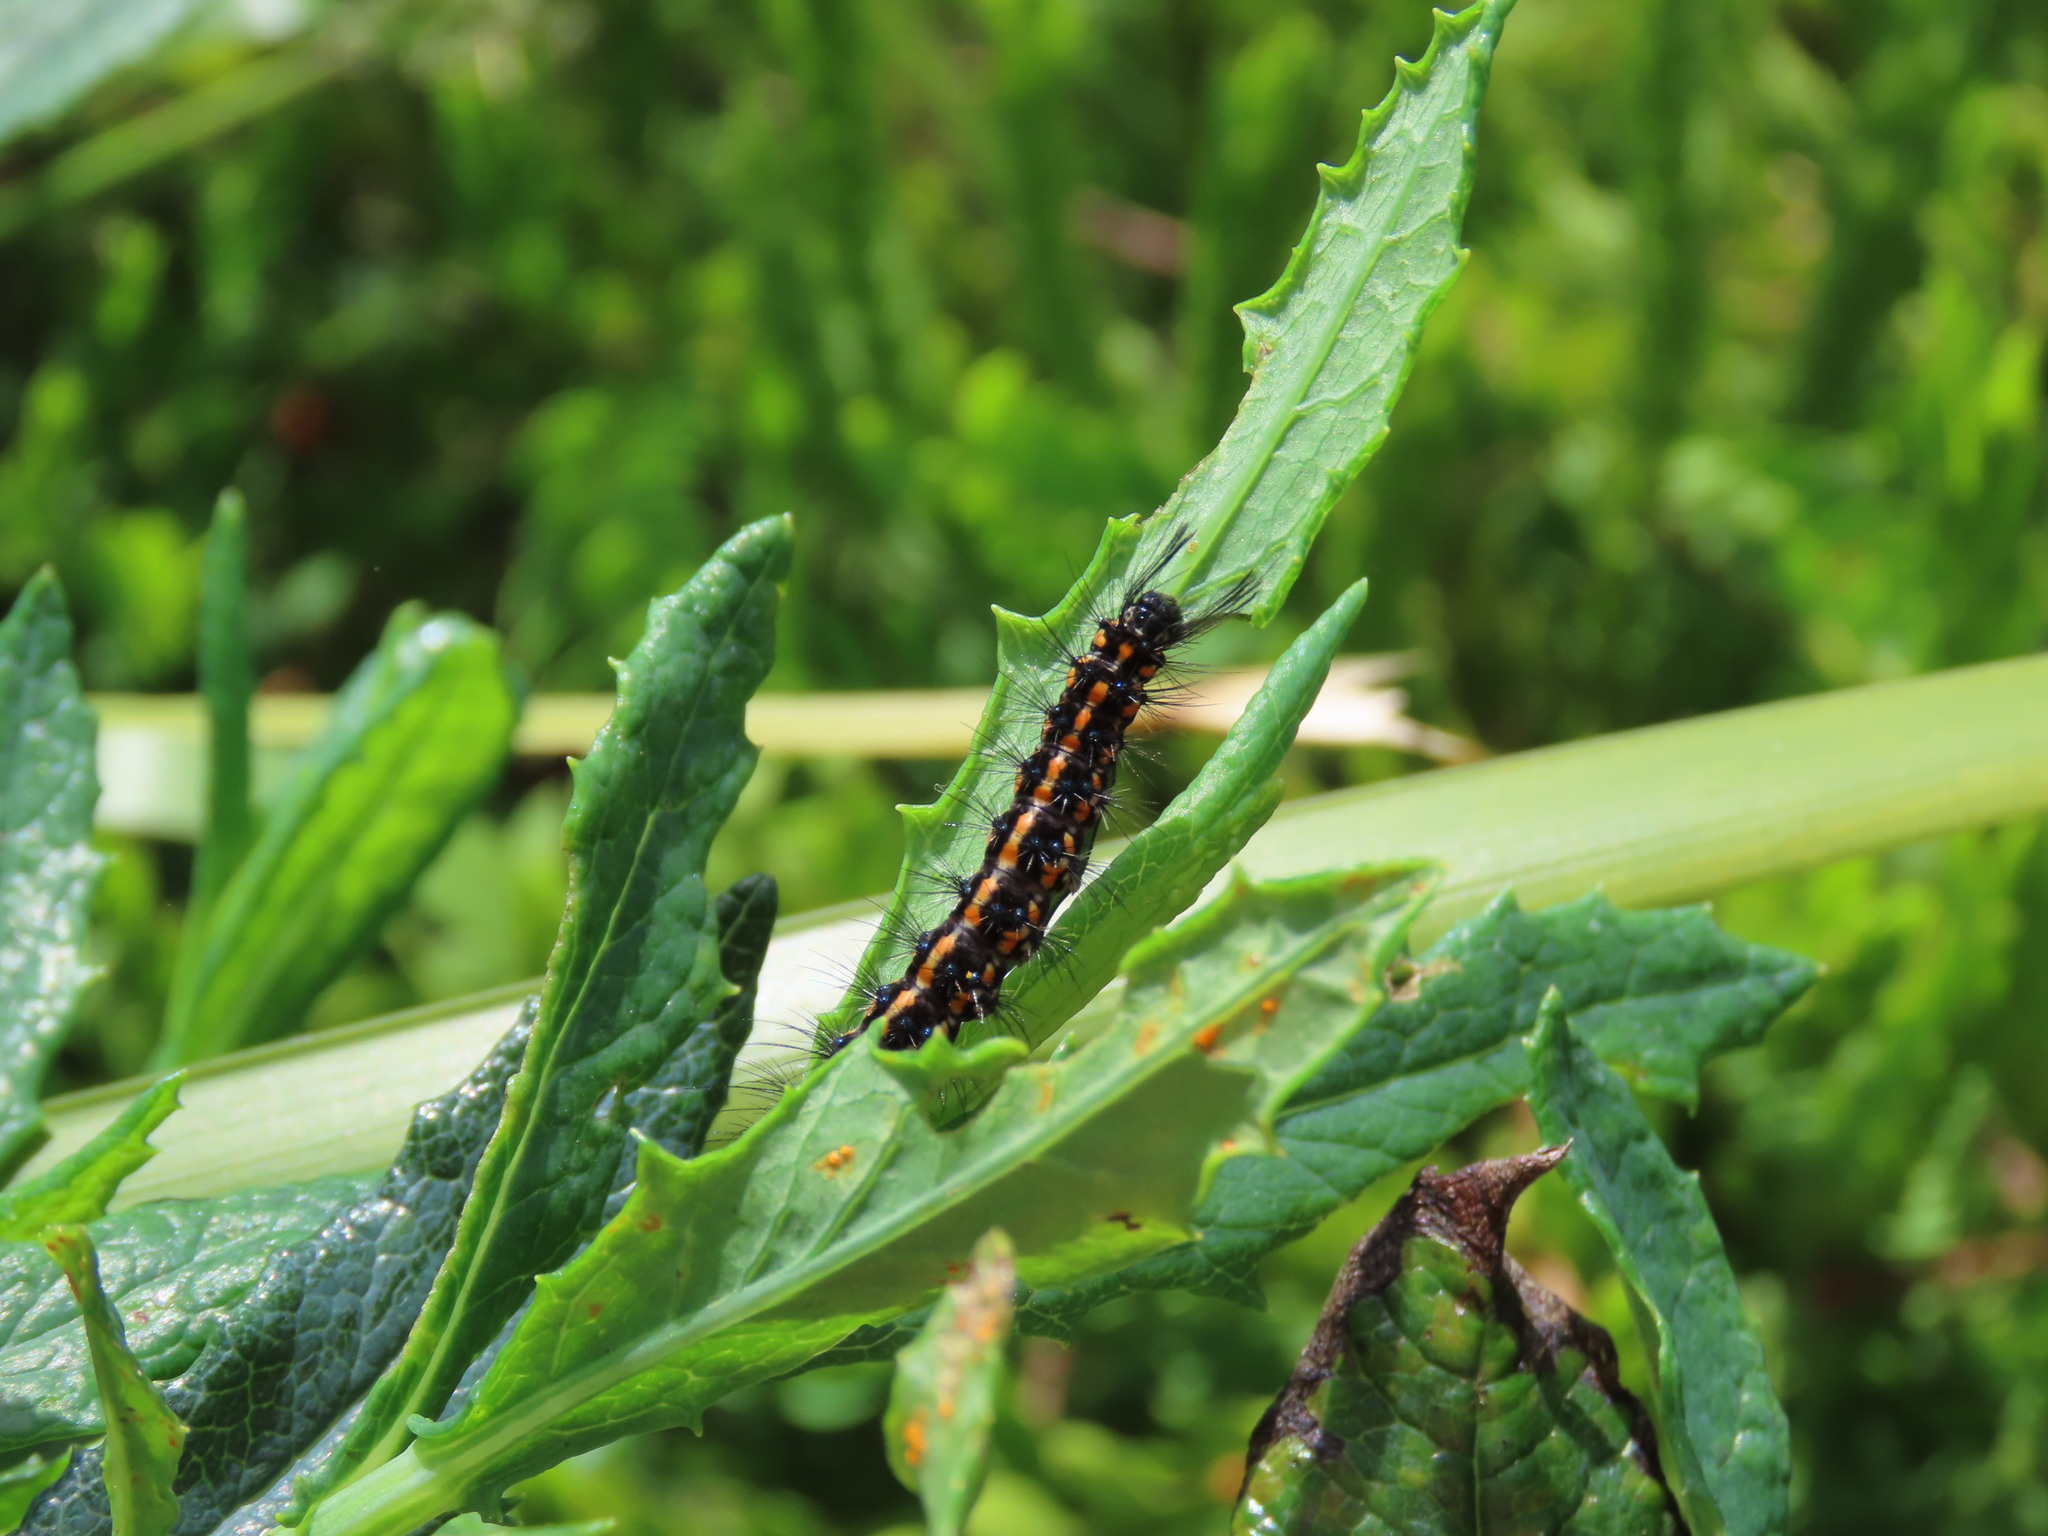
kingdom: Animalia
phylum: Arthropoda
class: Insecta
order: Lepidoptera
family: Erebidae
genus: Nyctemera
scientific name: Nyctemera amicus
